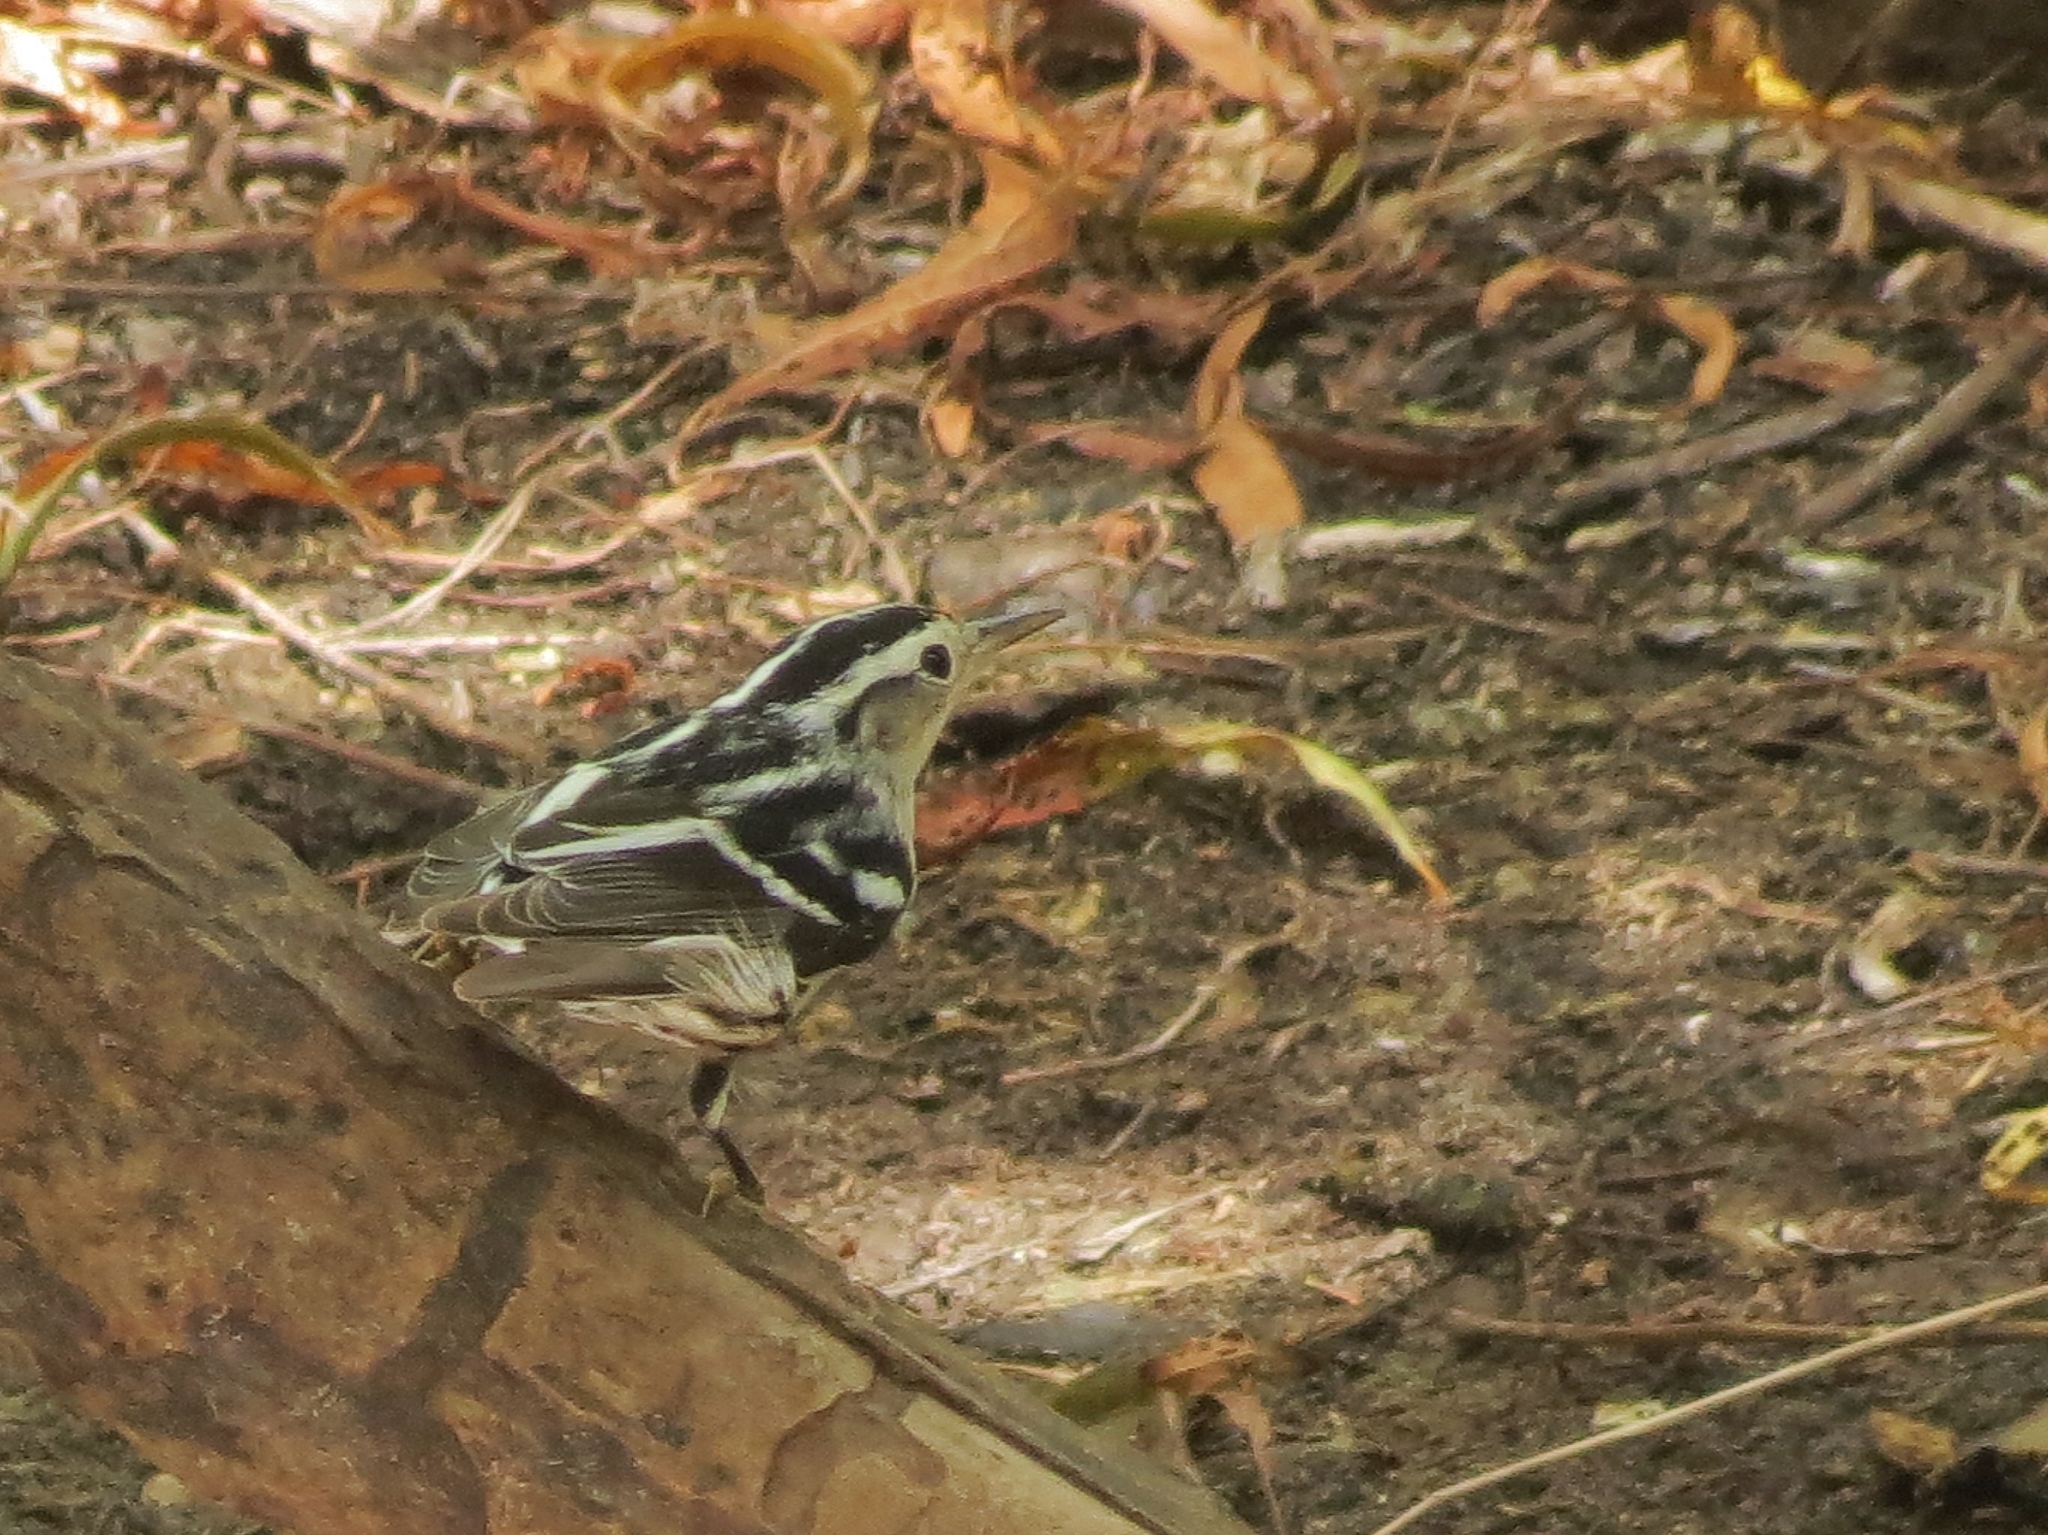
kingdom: Animalia
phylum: Chordata
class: Aves
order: Passeriformes
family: Parulidae
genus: Mniotilta
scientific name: Mniotilta varia
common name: Black-and-white warbler
